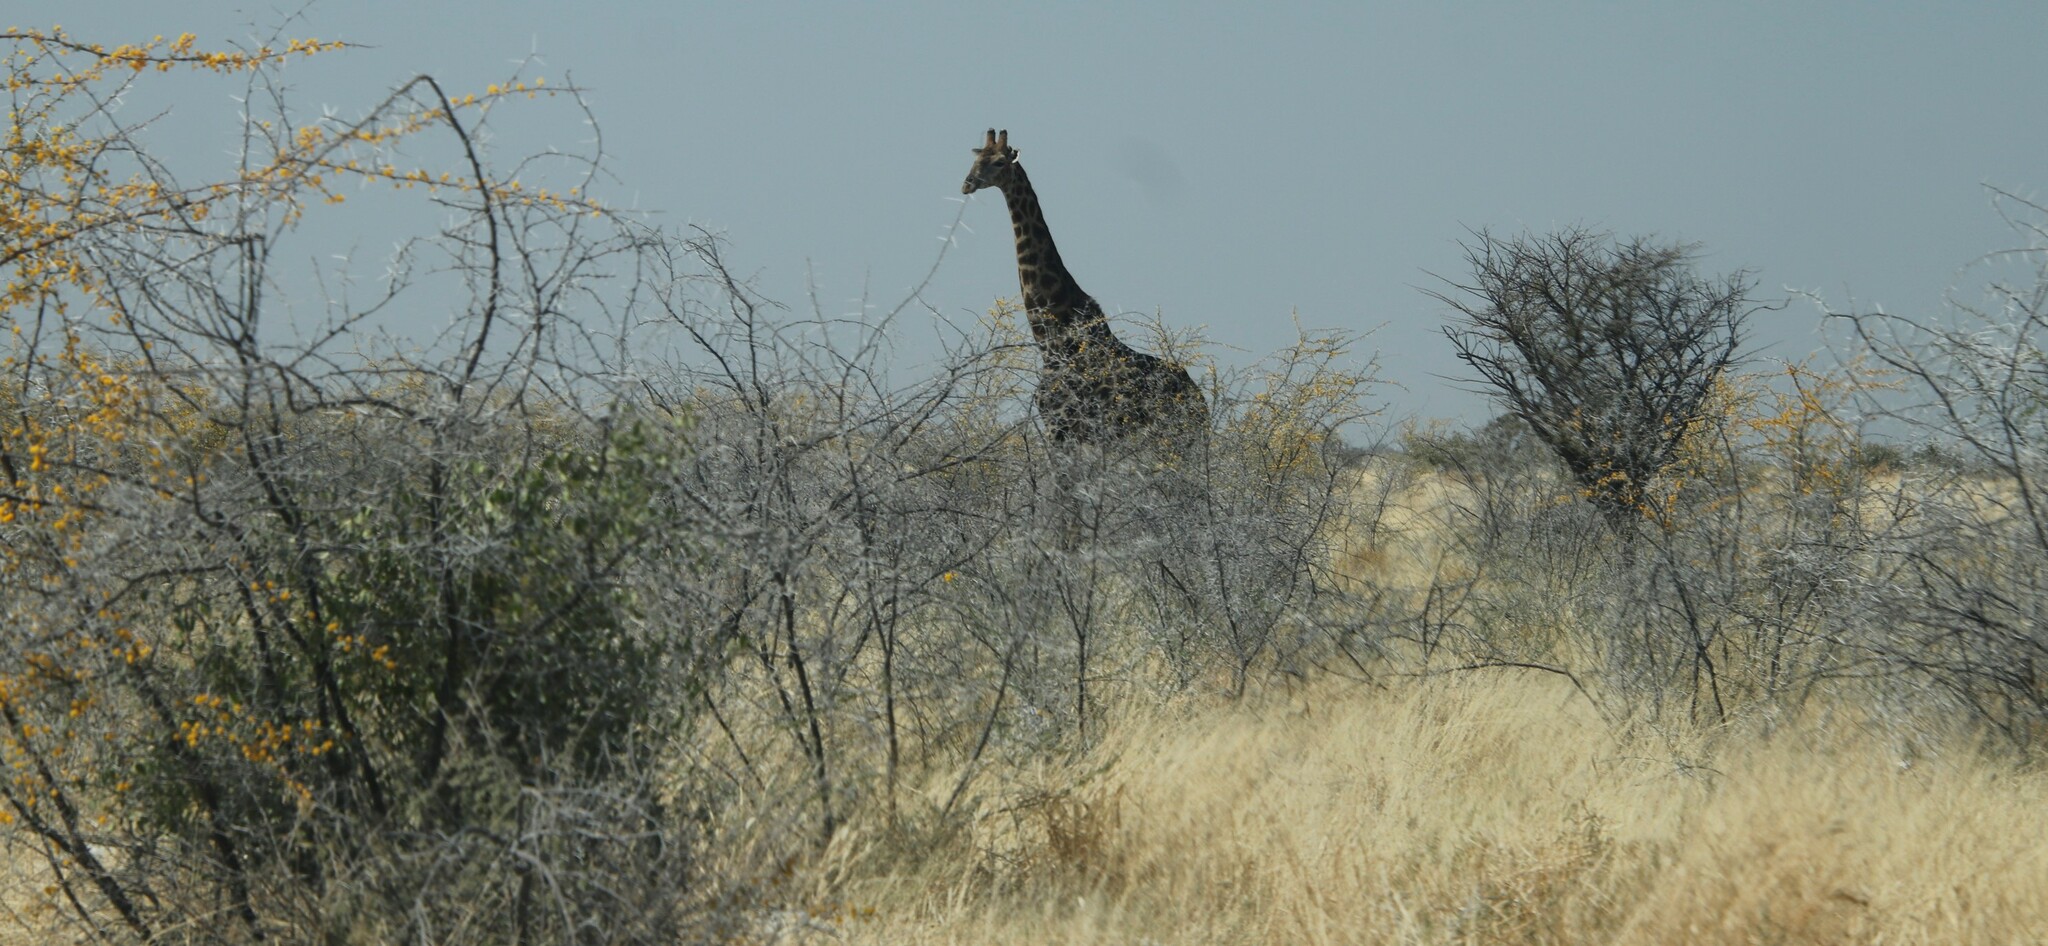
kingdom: Animalia
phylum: Chordata
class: Mammalia
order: Artiodactyla
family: Giraffidae
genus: Giraffa
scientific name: Giraffa giraffa
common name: Southern giraffe
